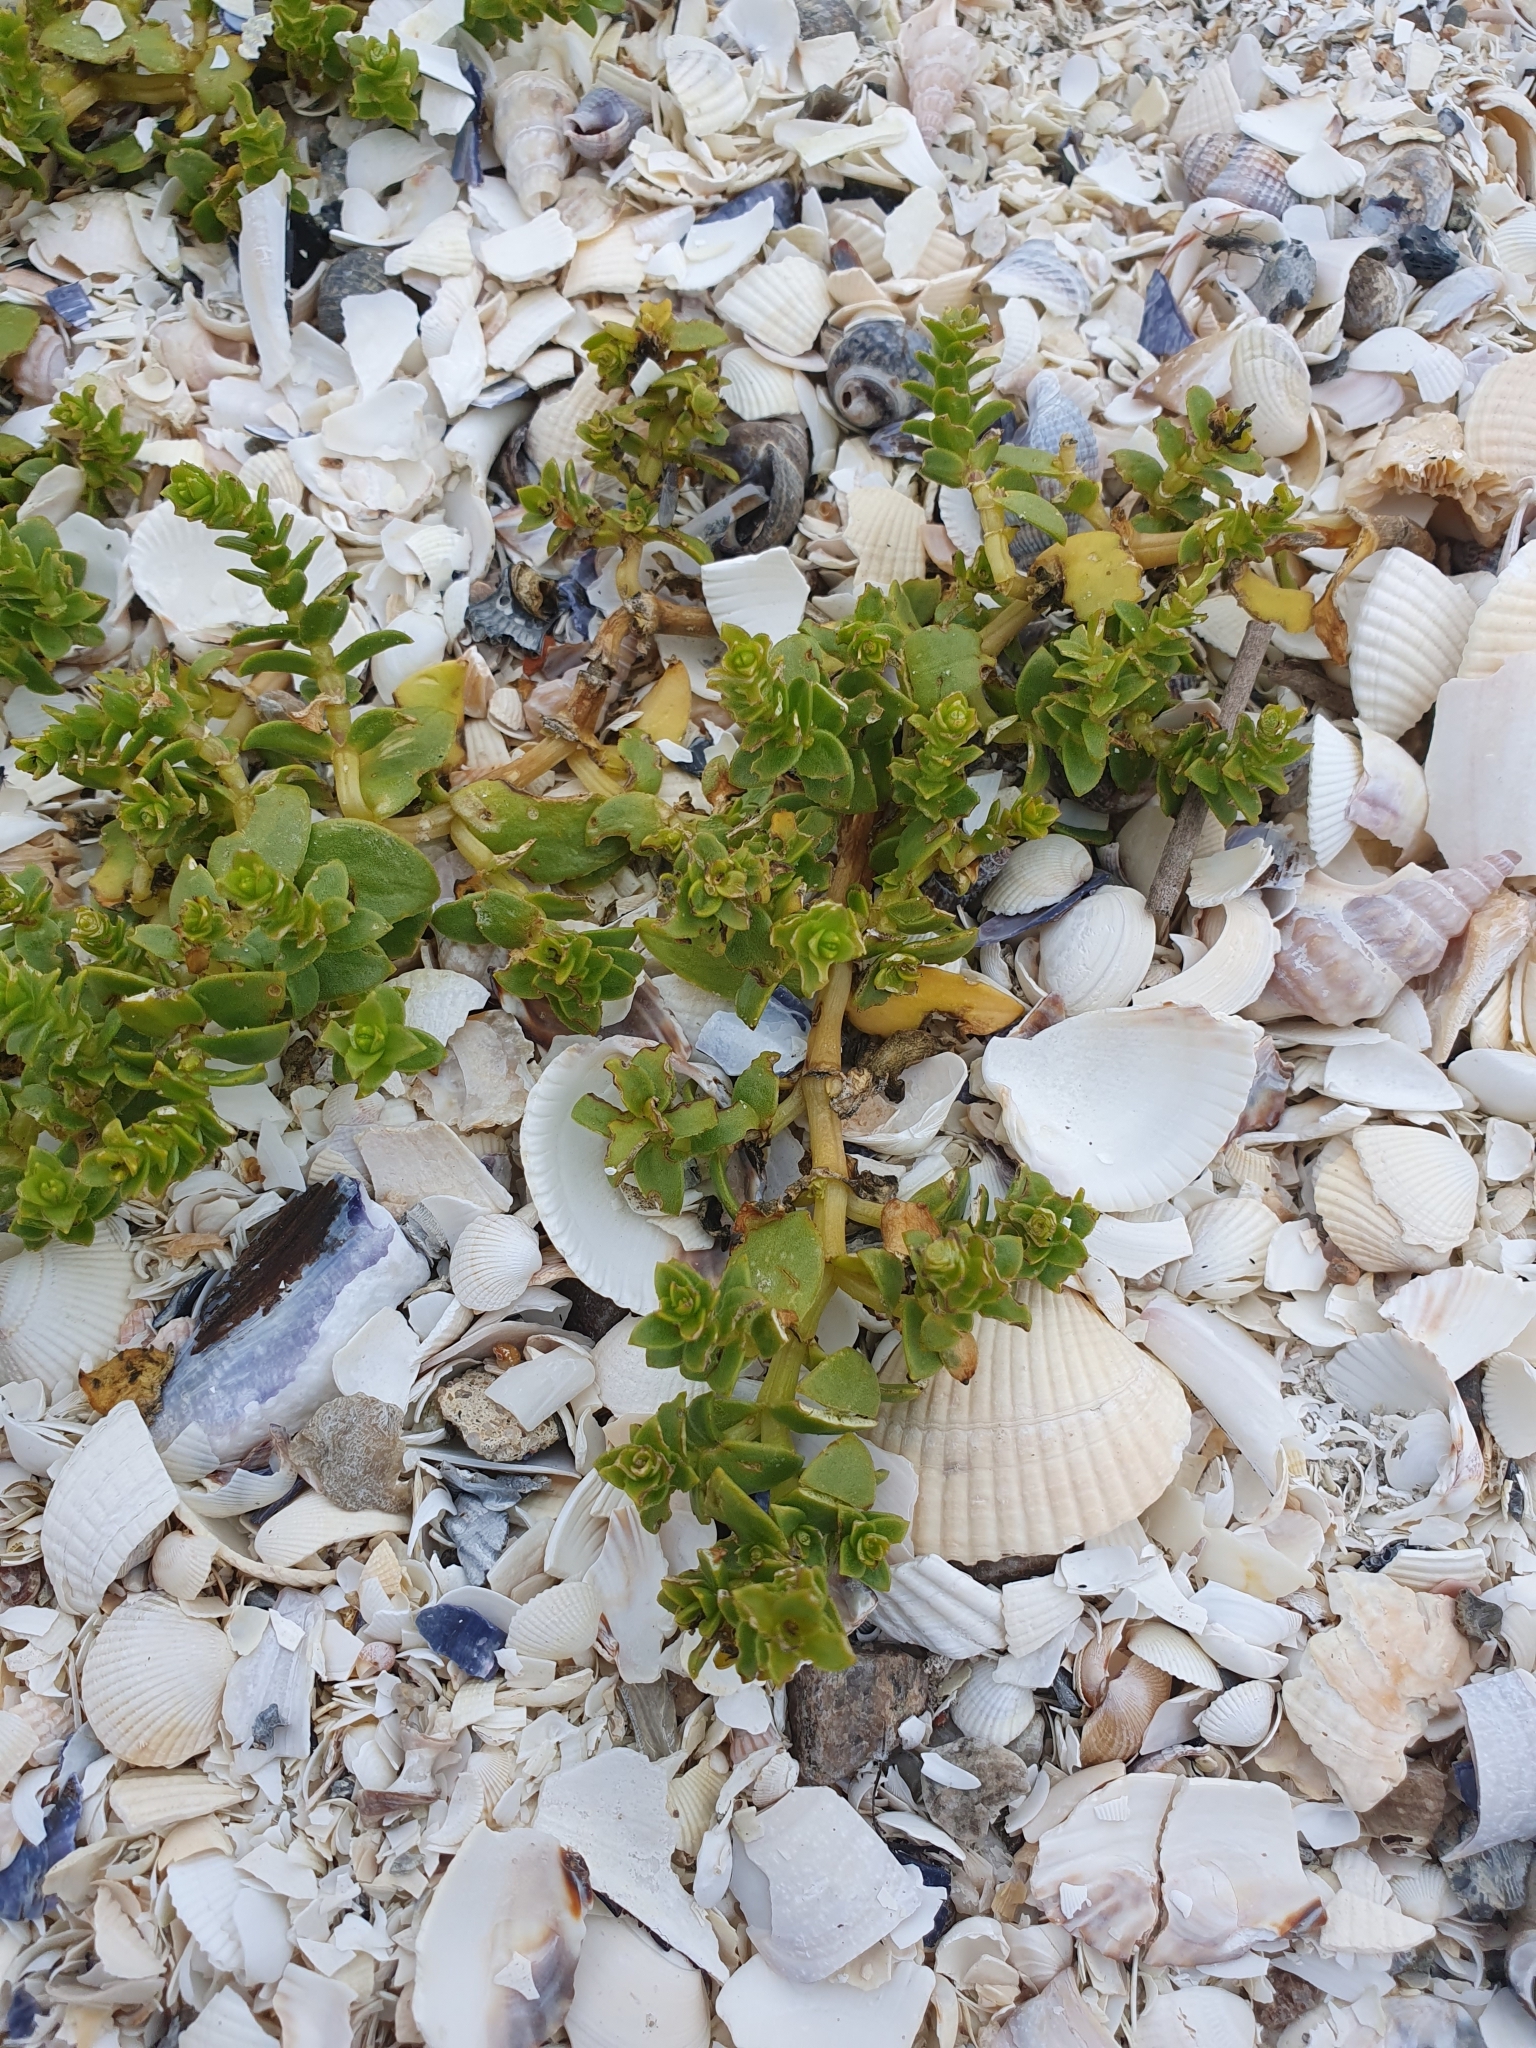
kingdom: Plantae
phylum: Tracheophyta
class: Magnoliopsida
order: Caryophyllales
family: Caryophyllaceae
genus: Honckenya
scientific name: Honckenya peploides
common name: Sea sandwort
